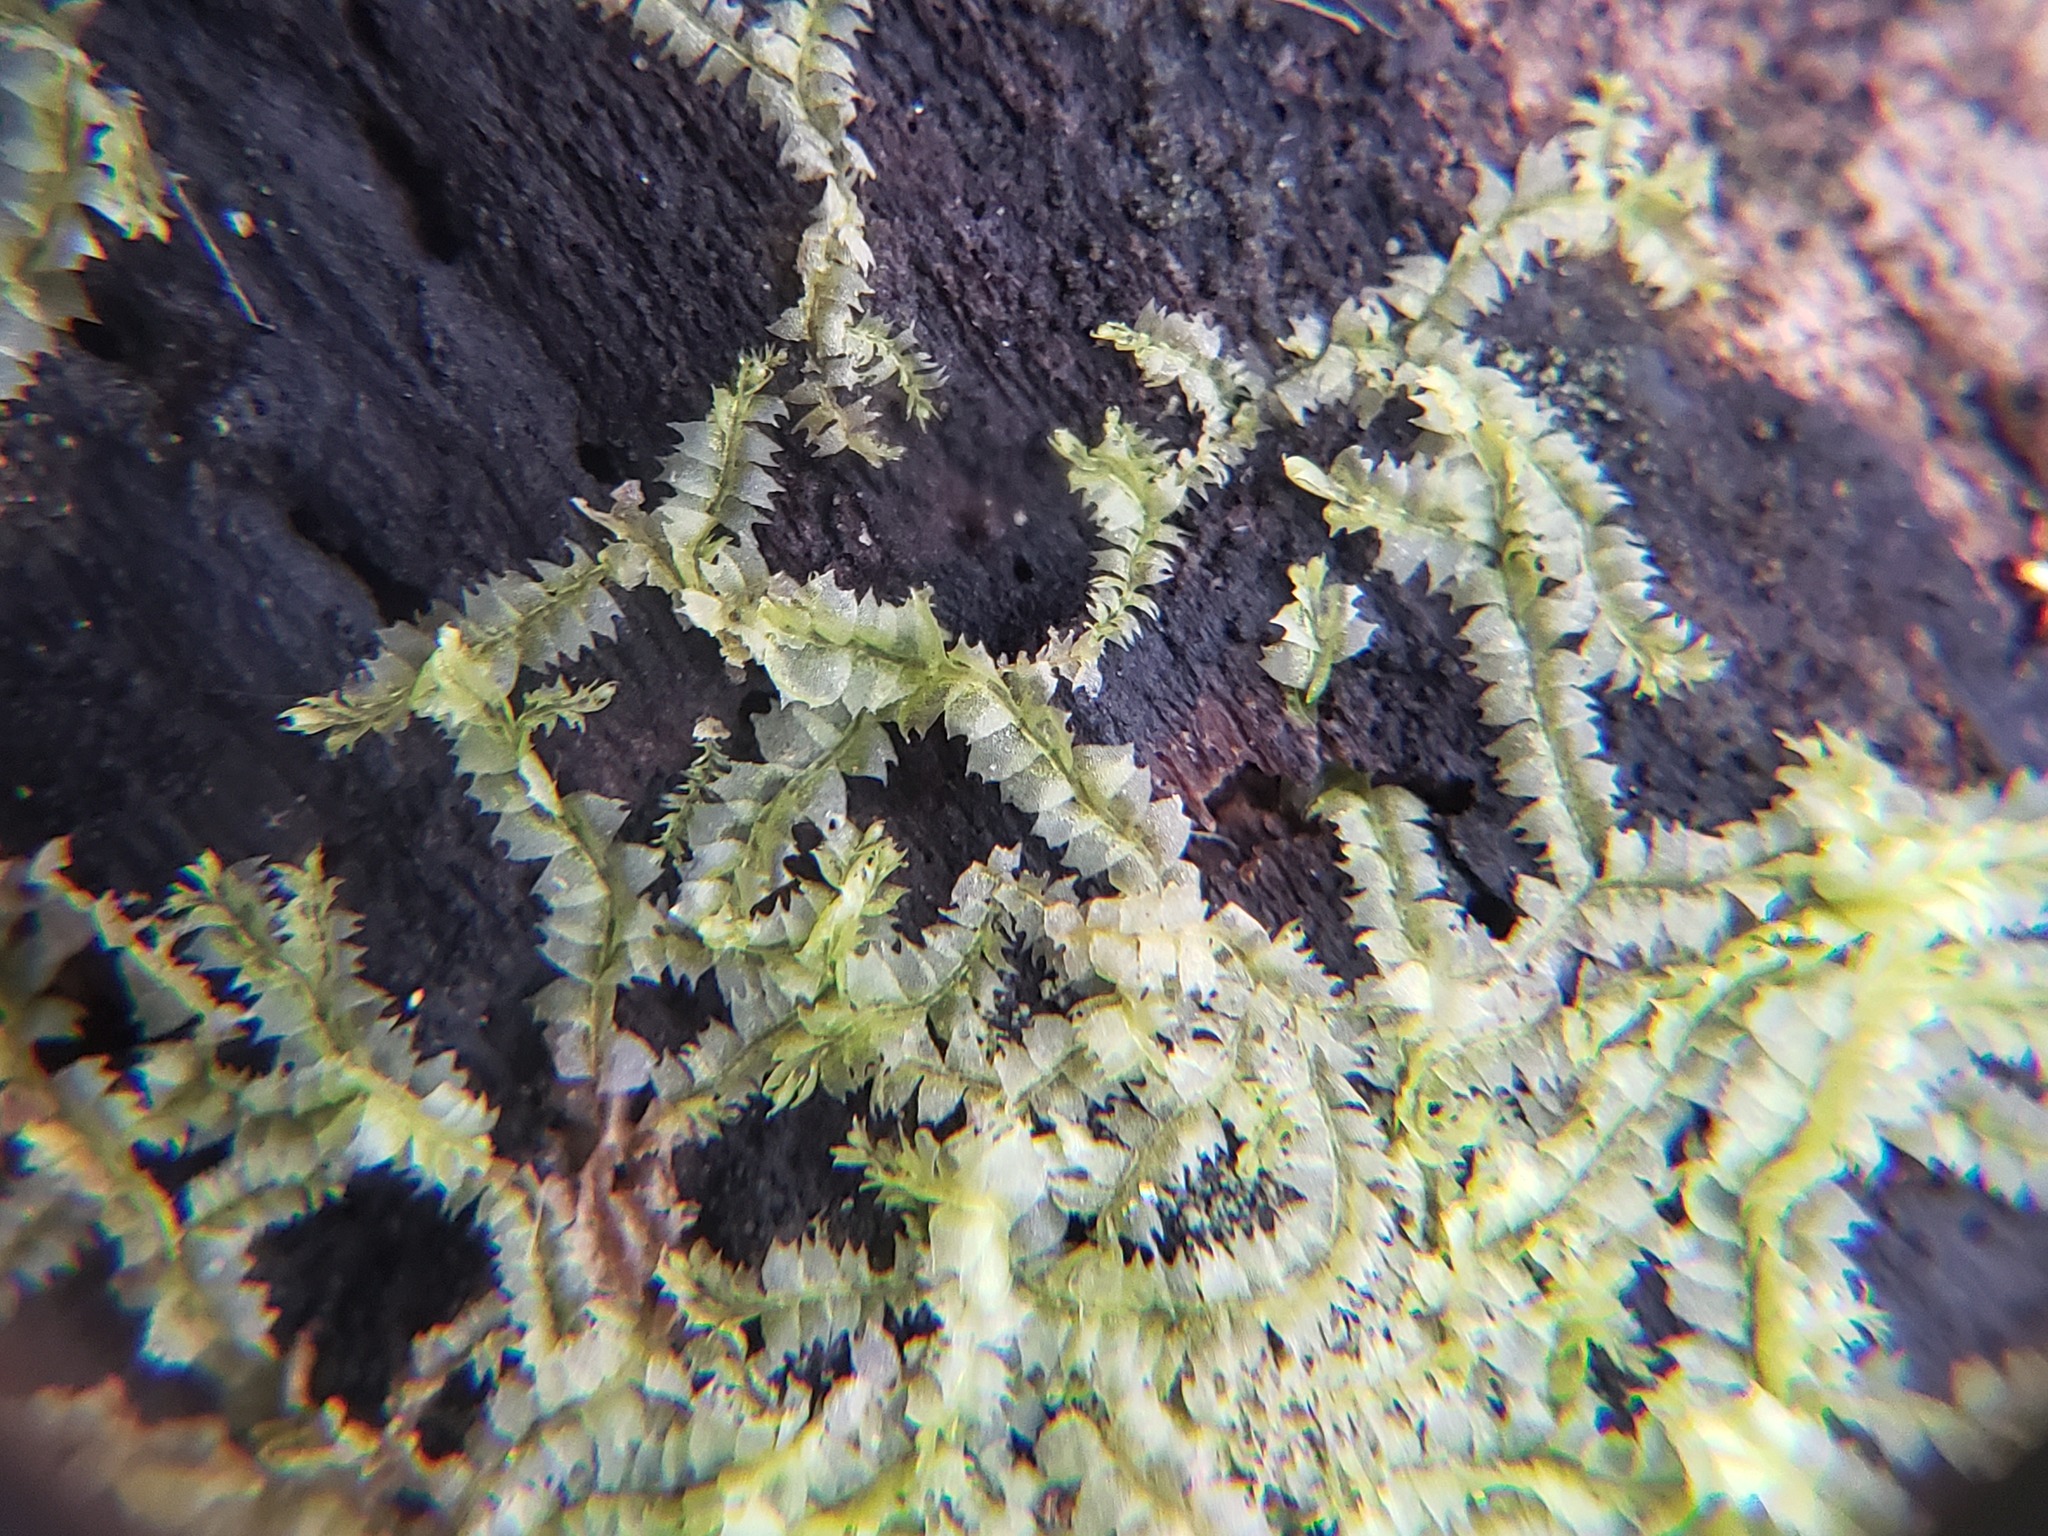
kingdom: Plantae
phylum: Marchantiophyta
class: Jungermanniopsida
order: Jungermanniales
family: Lophocoleaceae
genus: Lophocolea
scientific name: Lophocolea heterophylla
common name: Variable-leaved crestwort
